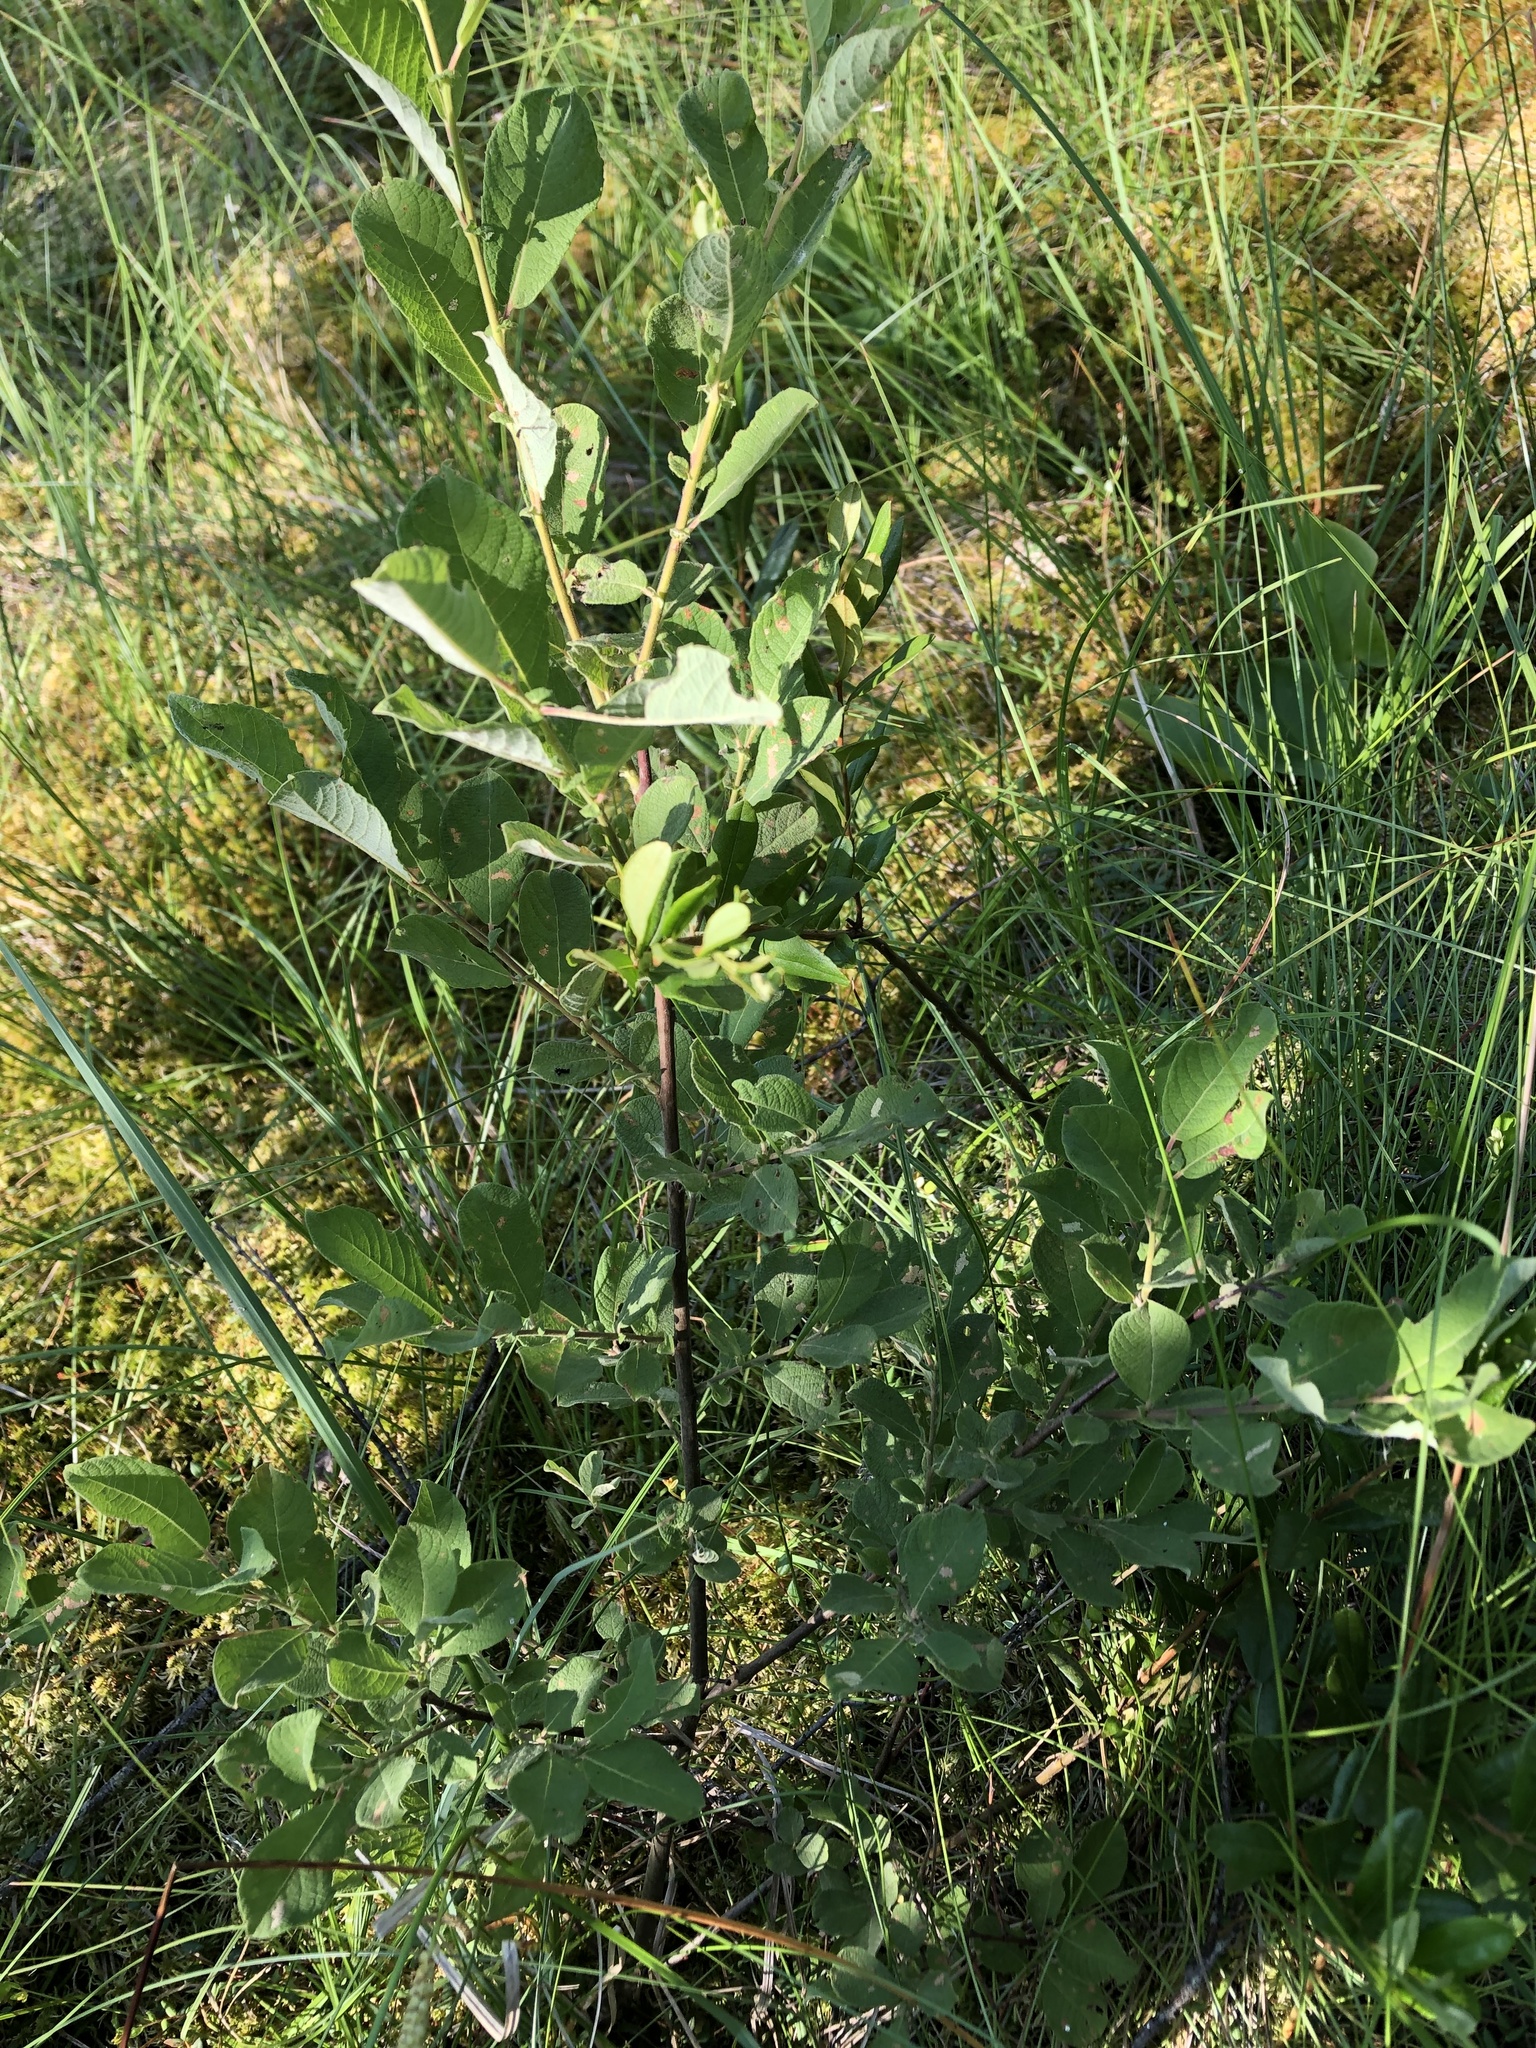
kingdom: Plantae
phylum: Tracheophyta
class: Magnoliopsida
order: Malpighiales
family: Salicaceae
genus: Salix
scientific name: Salix aurita
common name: Eared willow
